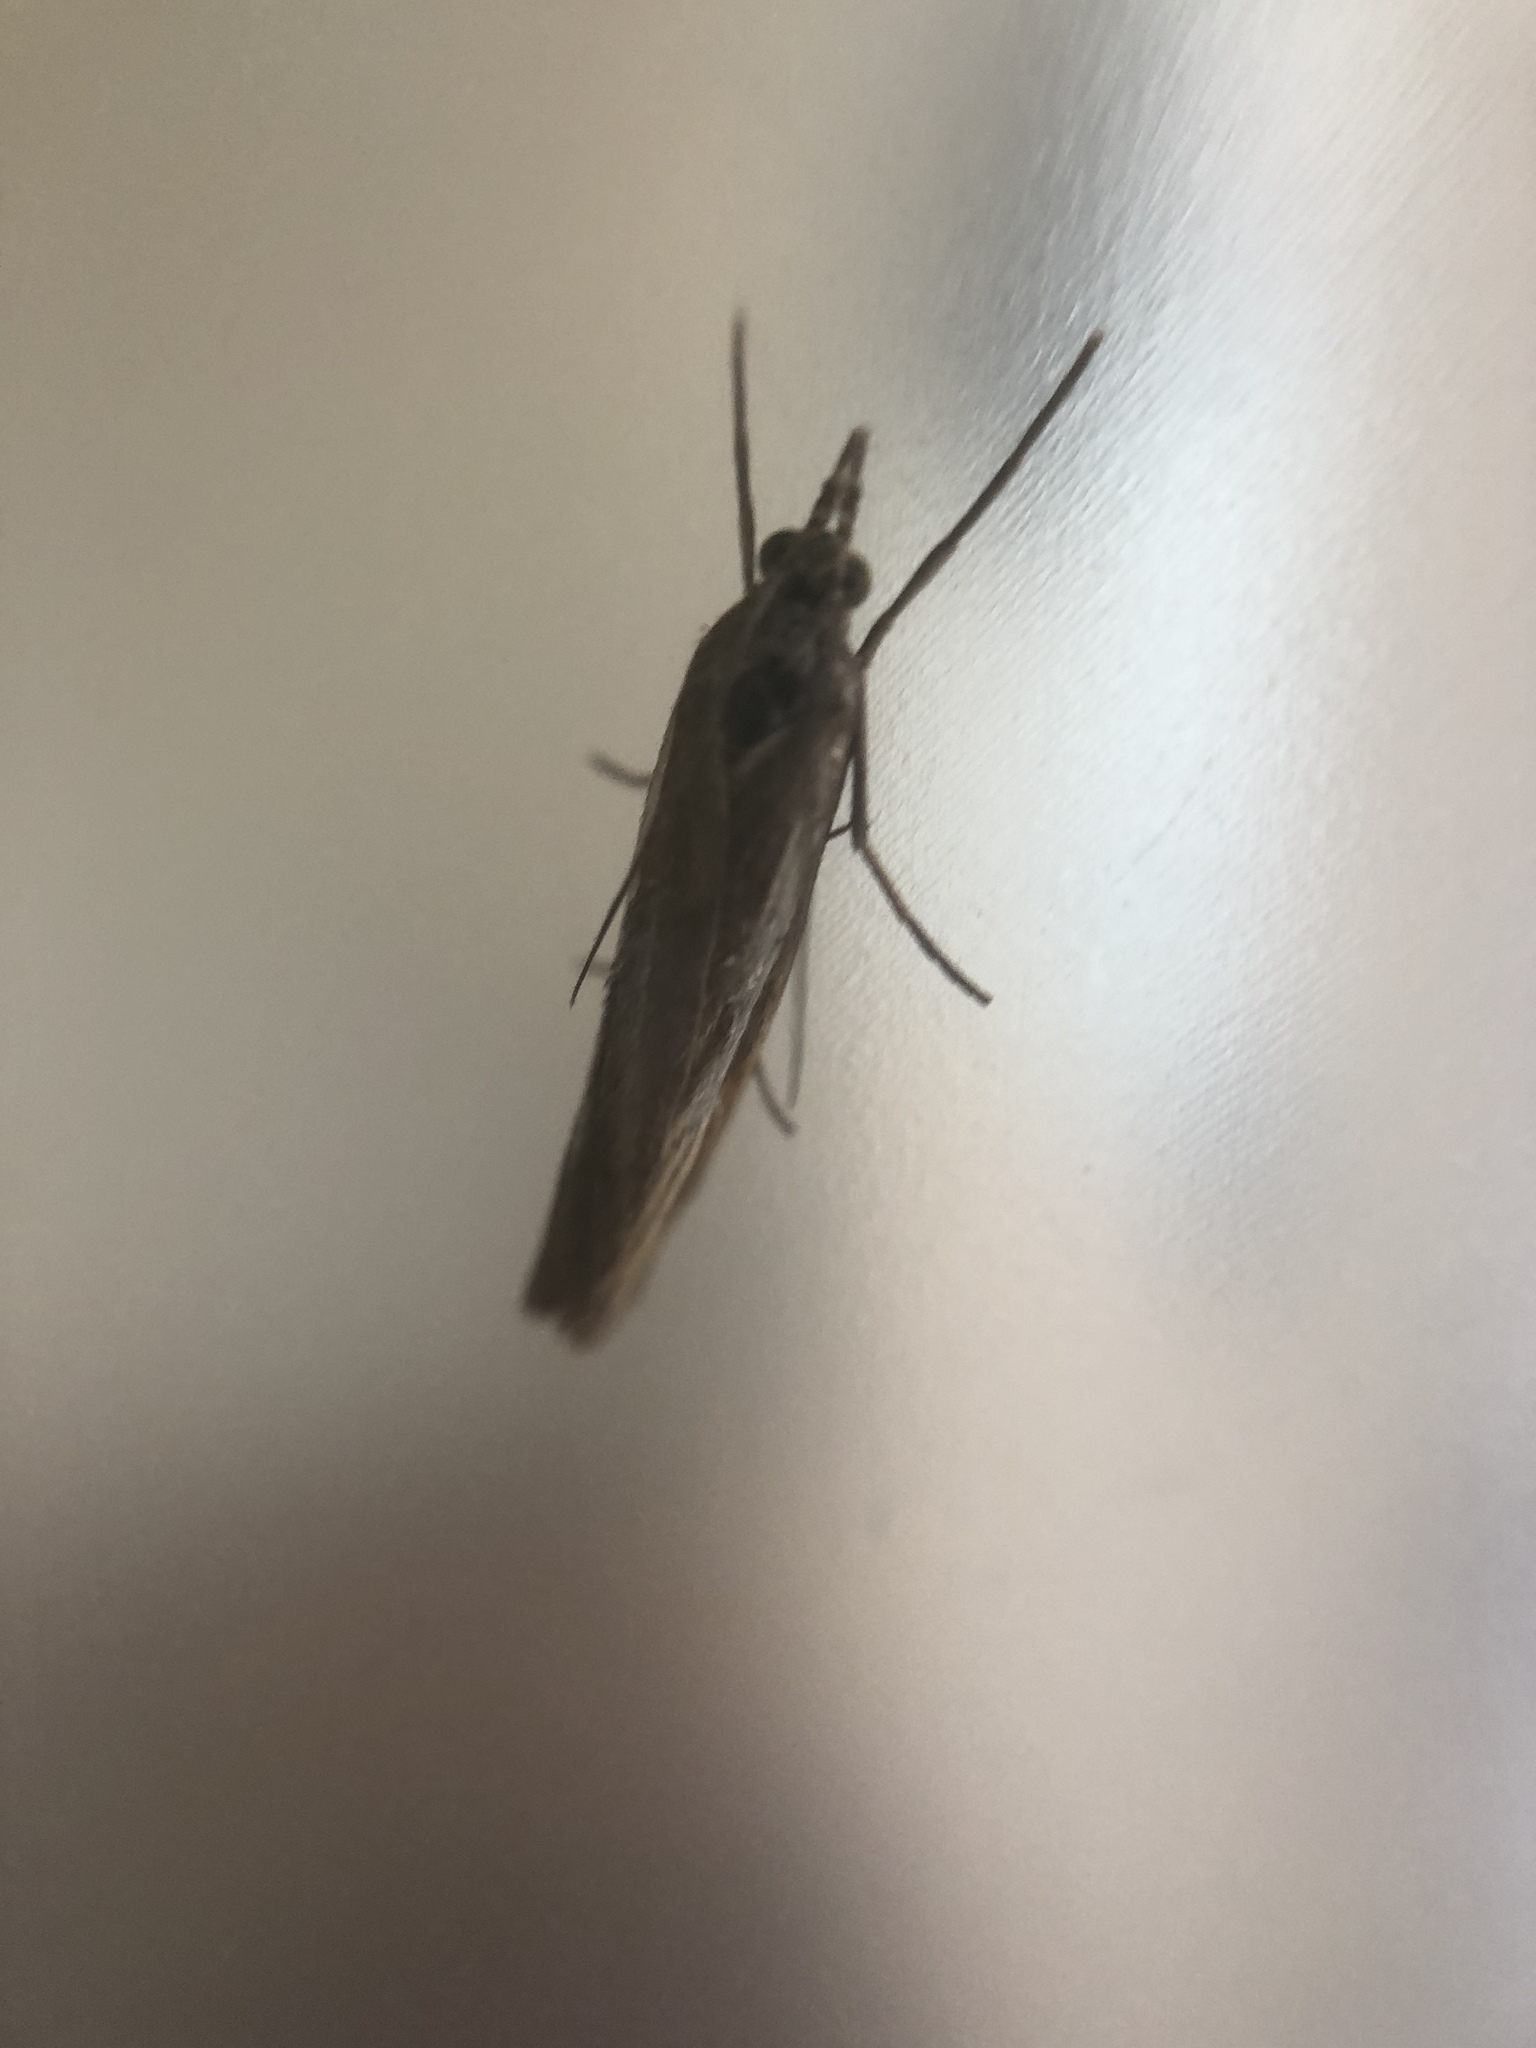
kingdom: Animalia
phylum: Arthropoda
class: Insecta
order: Lepidoptera
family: Crambidae
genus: Agriphila
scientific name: Agriphila tristellus
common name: Common grass-veneer
